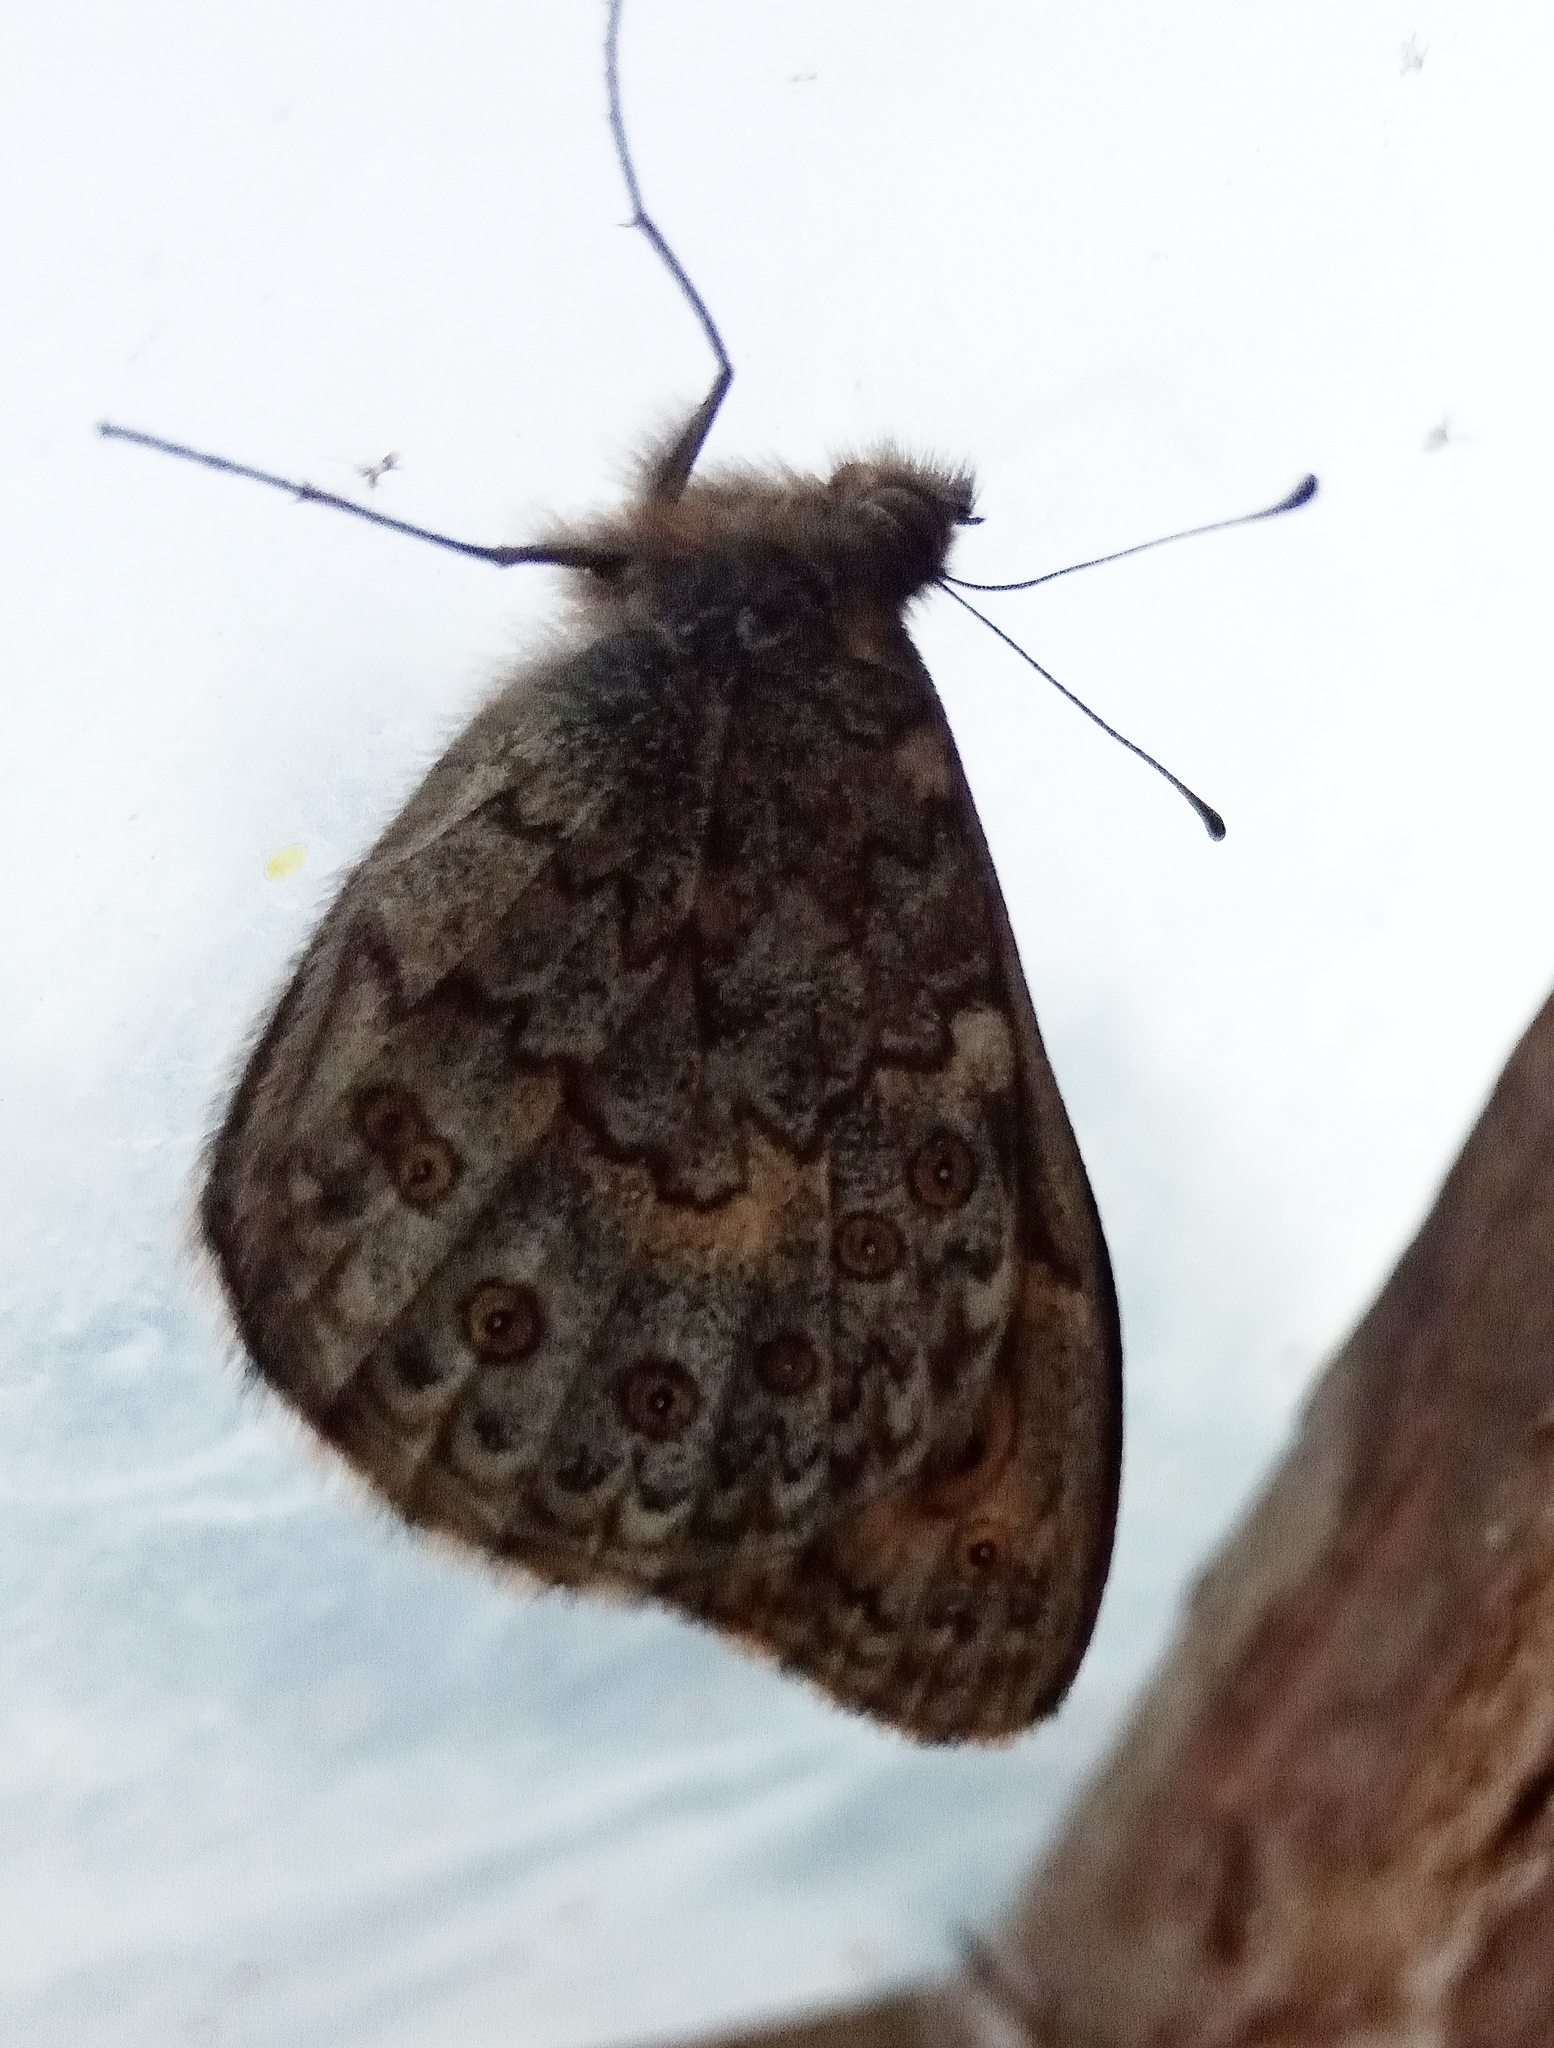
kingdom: Animalia
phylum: Arthropoda
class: Insecta
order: Lepidoptera
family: Nymphalidae
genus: Pararge
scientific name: Pararge Lasiommata megera
